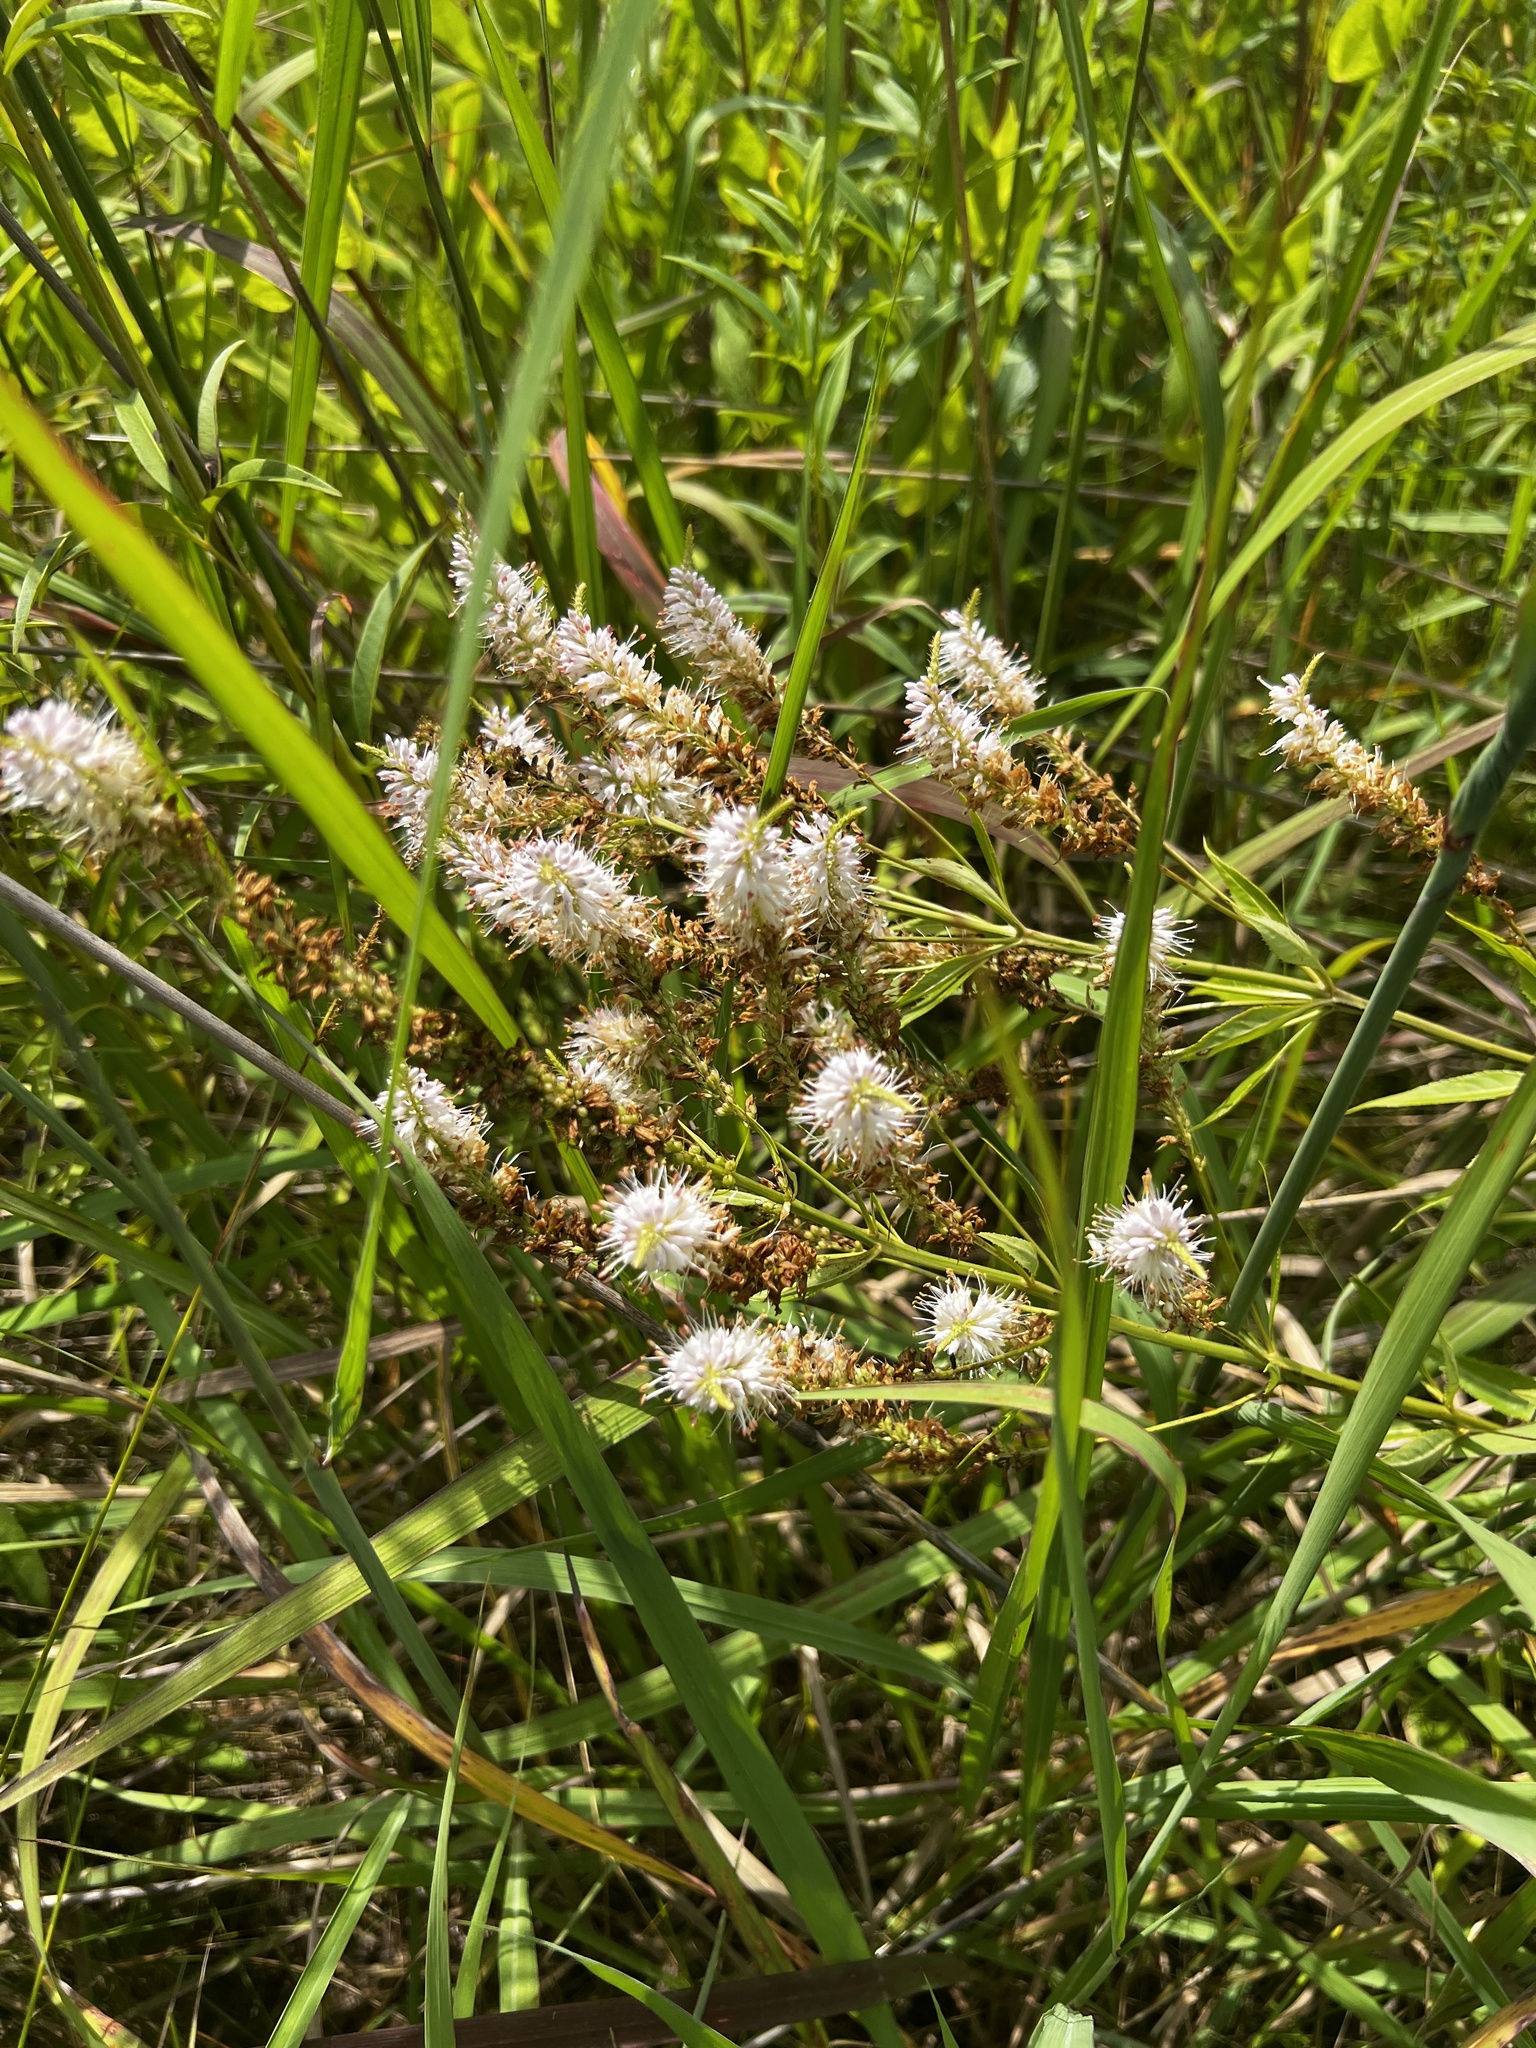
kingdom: Plantae
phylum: Tracheophyta
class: Magnoliopsida
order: Lamiales
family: Plantaginaceae
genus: Veronicastrum
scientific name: Veronicastrum virginicum
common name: Blackroot
